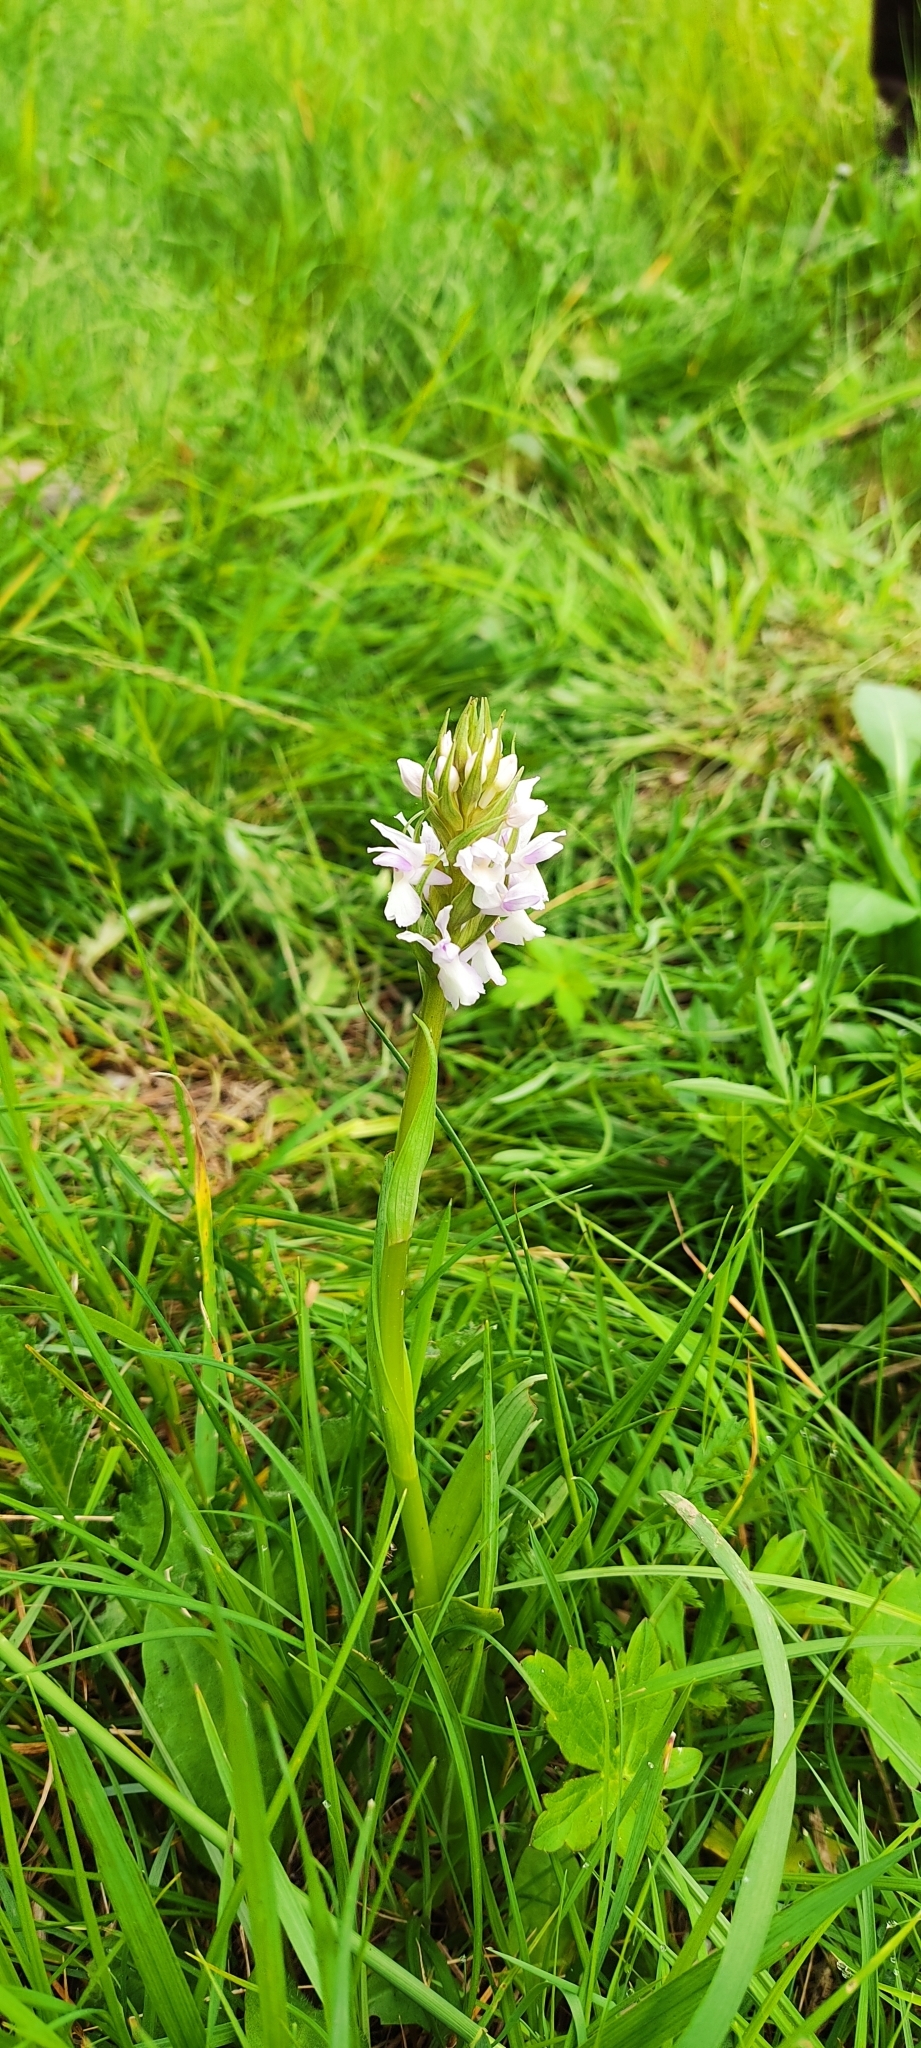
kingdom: Plantae
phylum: Tracheophyta
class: Liliopsida
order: Asparagales
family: Orchidaceae
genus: Dactylorhiza
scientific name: Dactylorhiza elata
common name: Stately dactylorhiza
